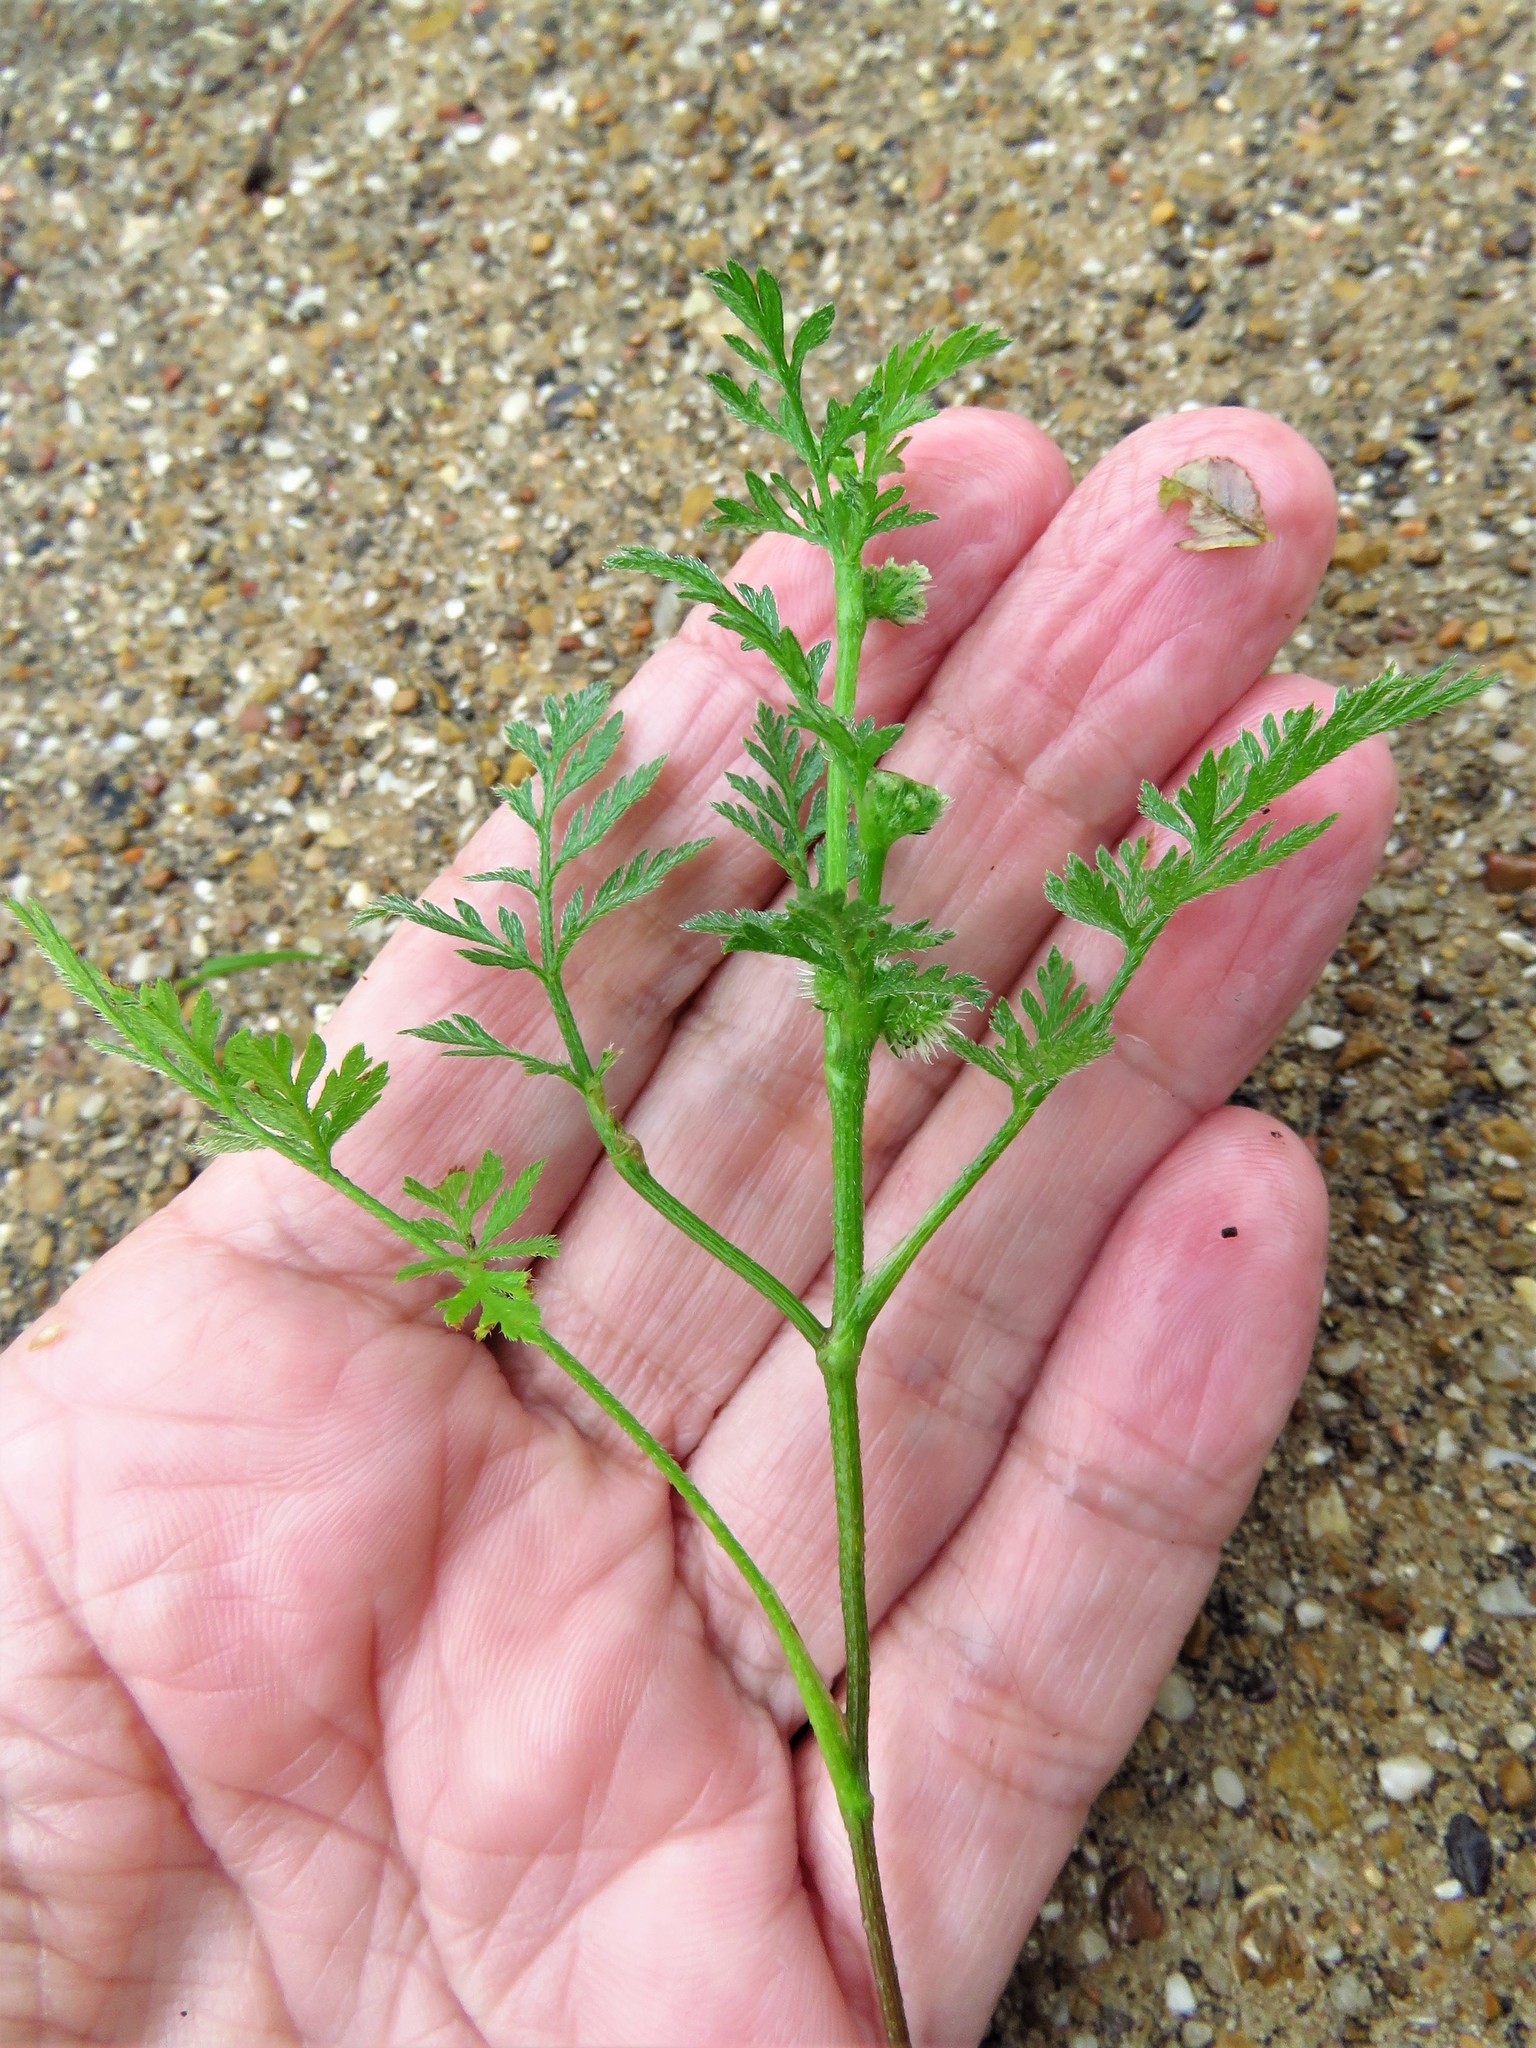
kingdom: Plantae
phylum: Tracheophyta
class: Magnoliopsida
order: Apiales
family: Apiaceae
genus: Torilis
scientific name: Torilis nodosa
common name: Knotted hedge-parsley
